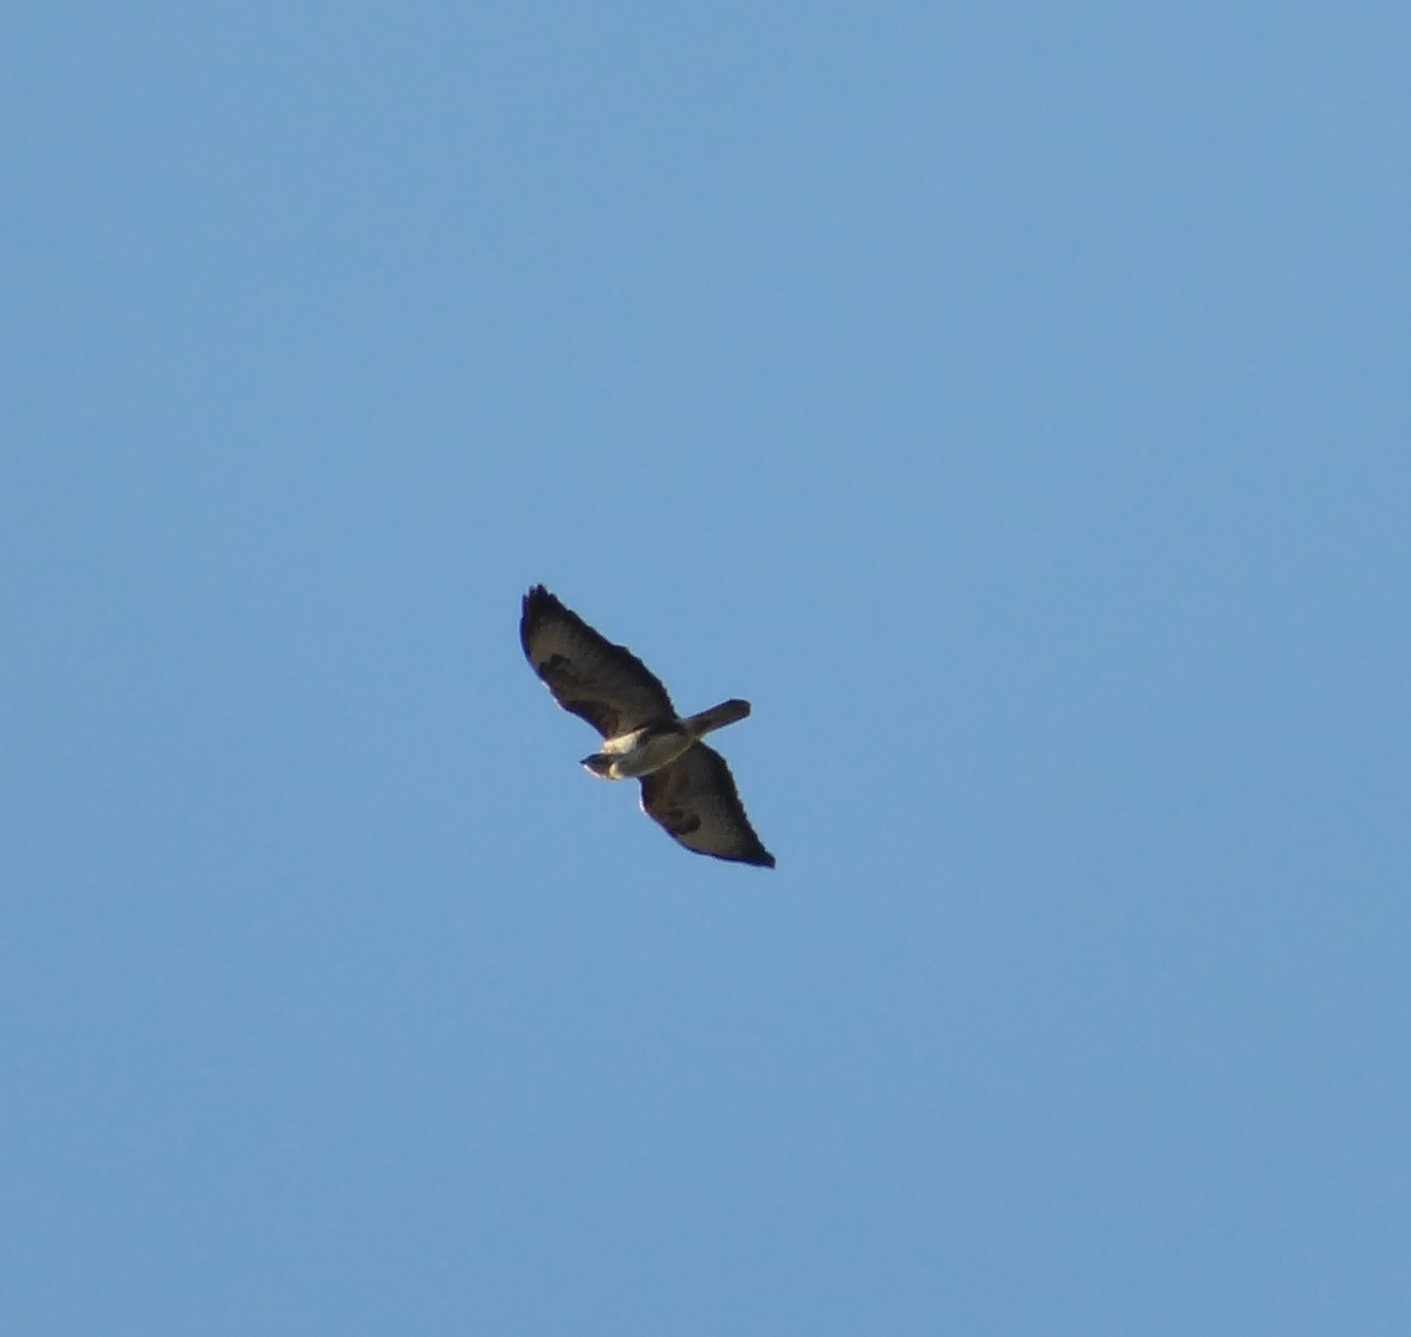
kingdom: Animalia
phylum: Chordata
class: Aves
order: Accipitriformes
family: Accipitridae
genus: Buteo
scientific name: Buteo buteo
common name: Common buzzard
